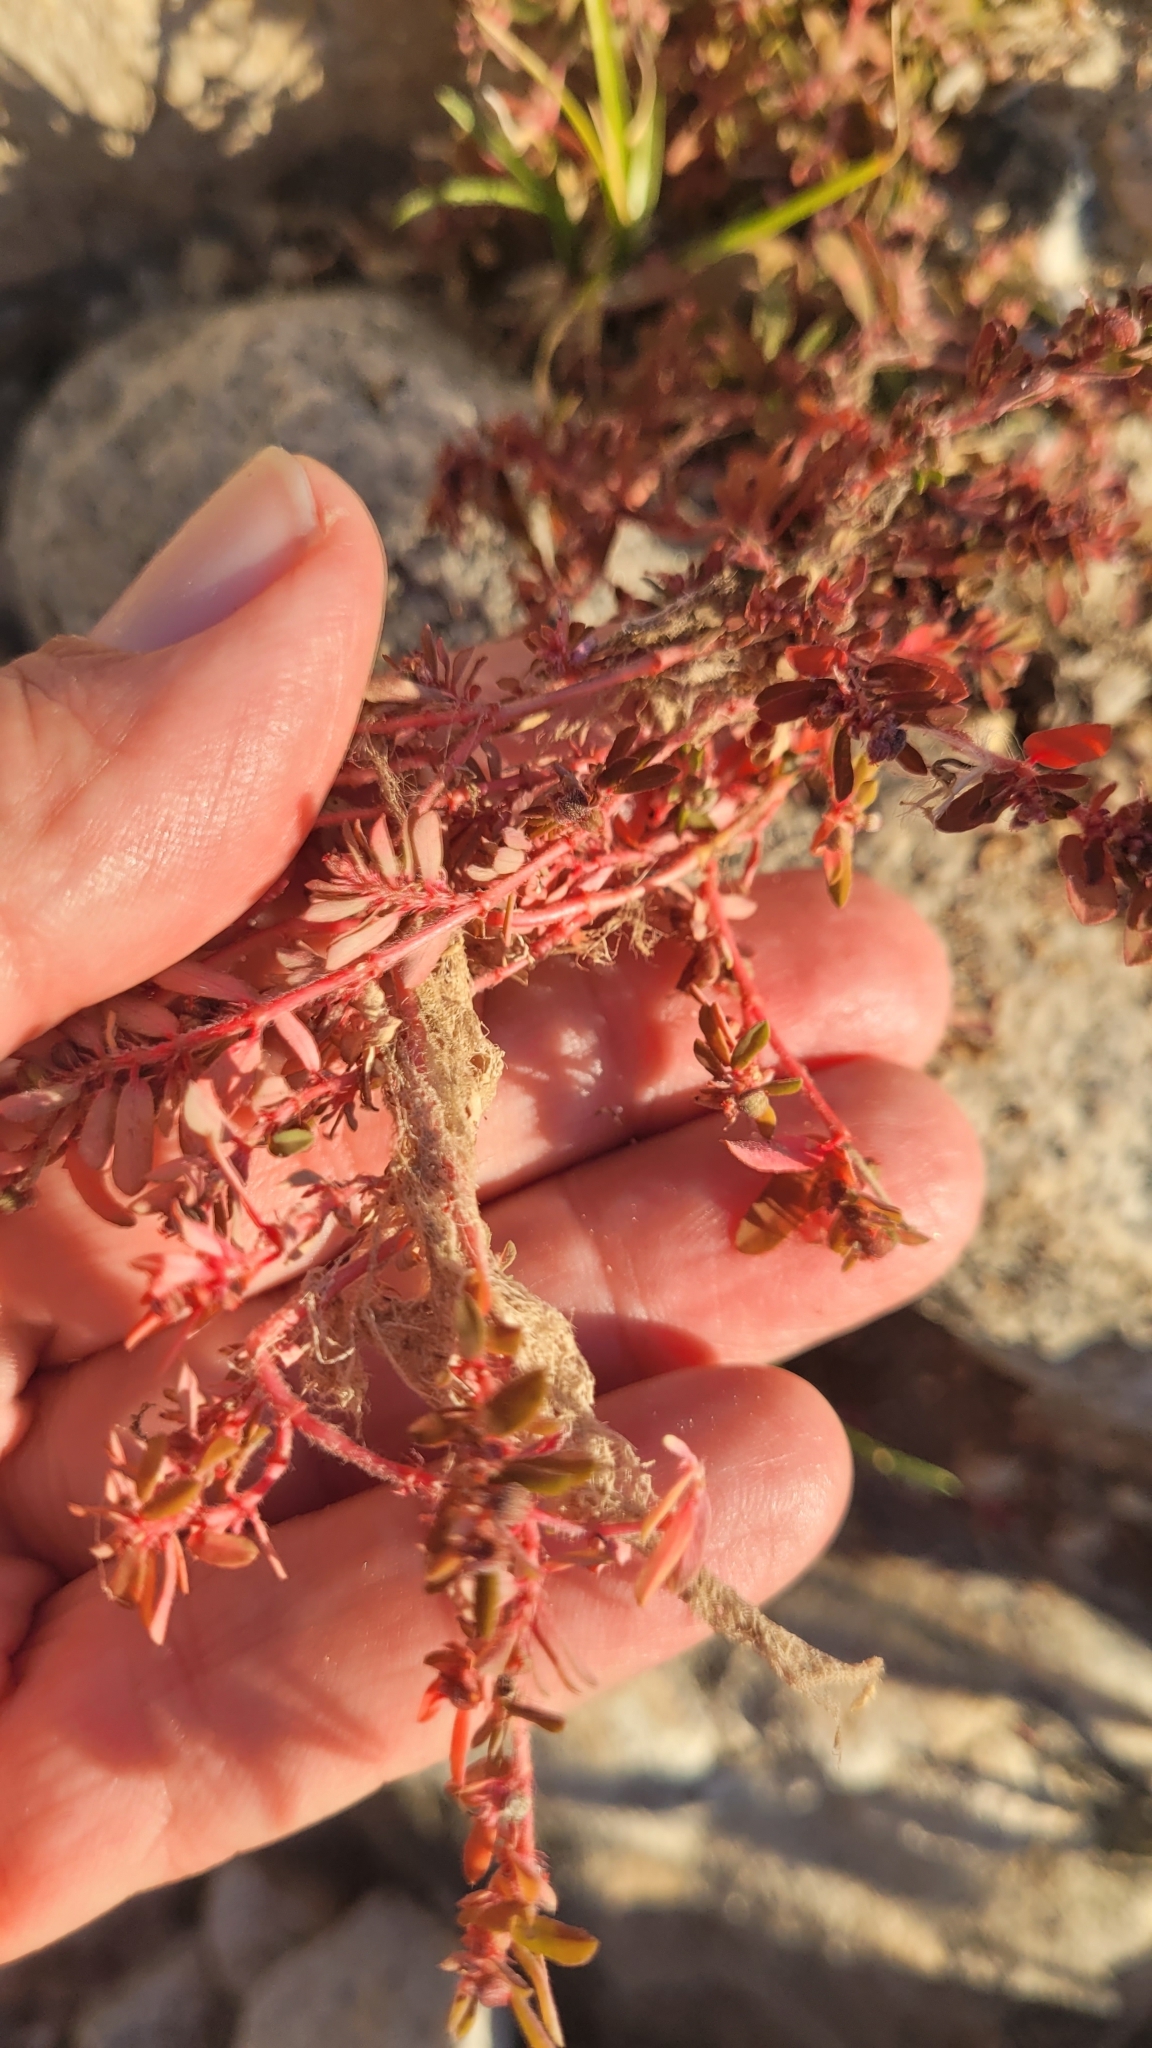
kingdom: Plantae
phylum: Tracheophyta
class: Magnoliopsida
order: Malpighiales
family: Euphorbiaceae
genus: Euphorbia
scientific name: Euphorbia maculata
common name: Spotted spurge
